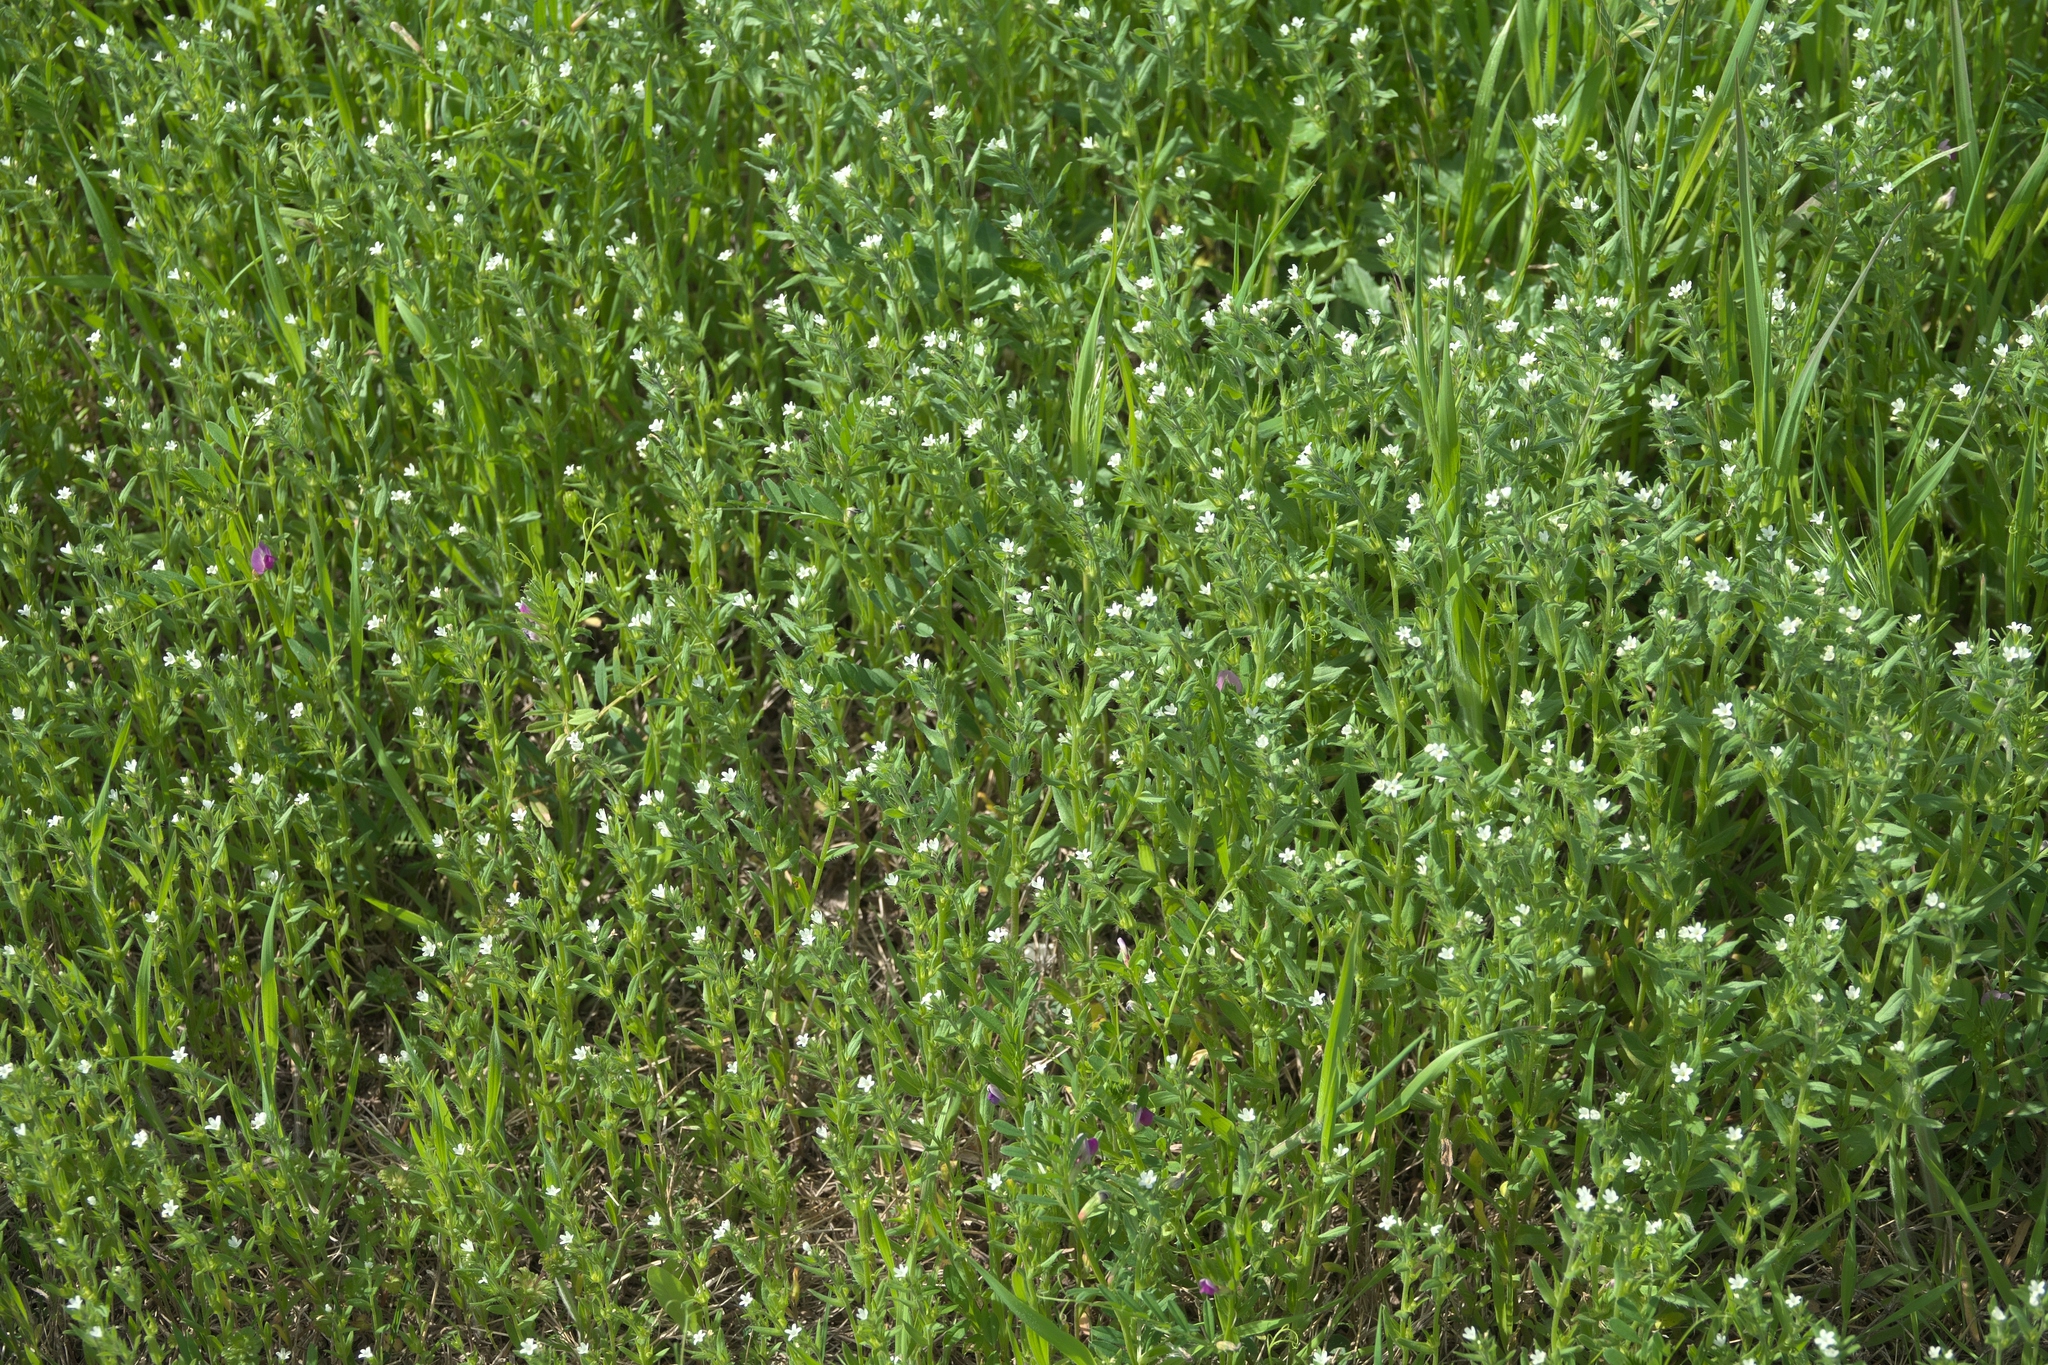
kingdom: Plantae
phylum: Tracheophyta
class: Magnoliopsida
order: Boraginales
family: Boraginaceae
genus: Buglossoides
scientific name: Buglossoides arvensis
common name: Corn gromwell
